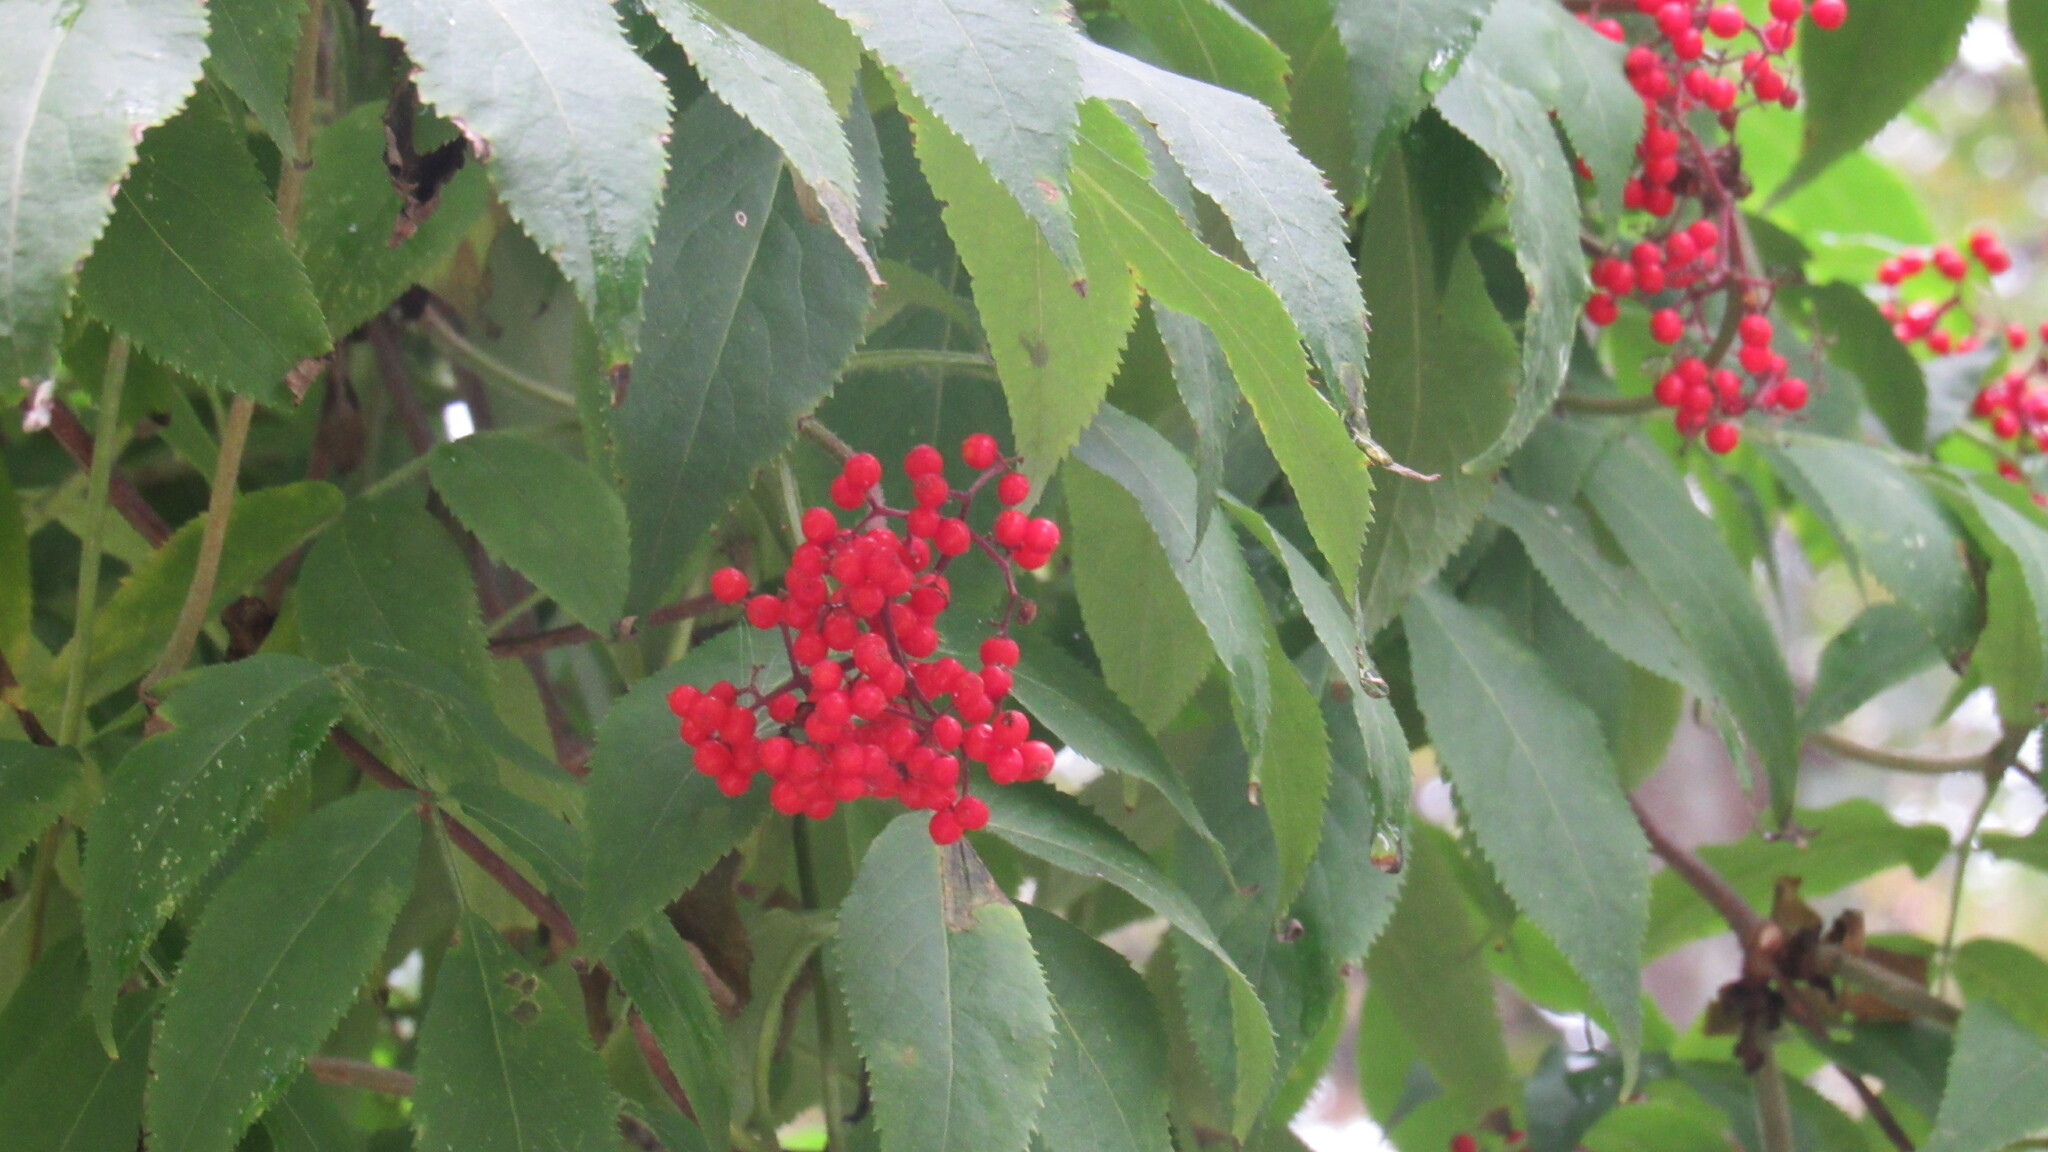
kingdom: Plantae
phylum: Tracheophyta
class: Magnoliopsida
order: Dipsacales
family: Viburnaceae
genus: Sambucus
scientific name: Sambucus racemosa
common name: Red-berried elder
